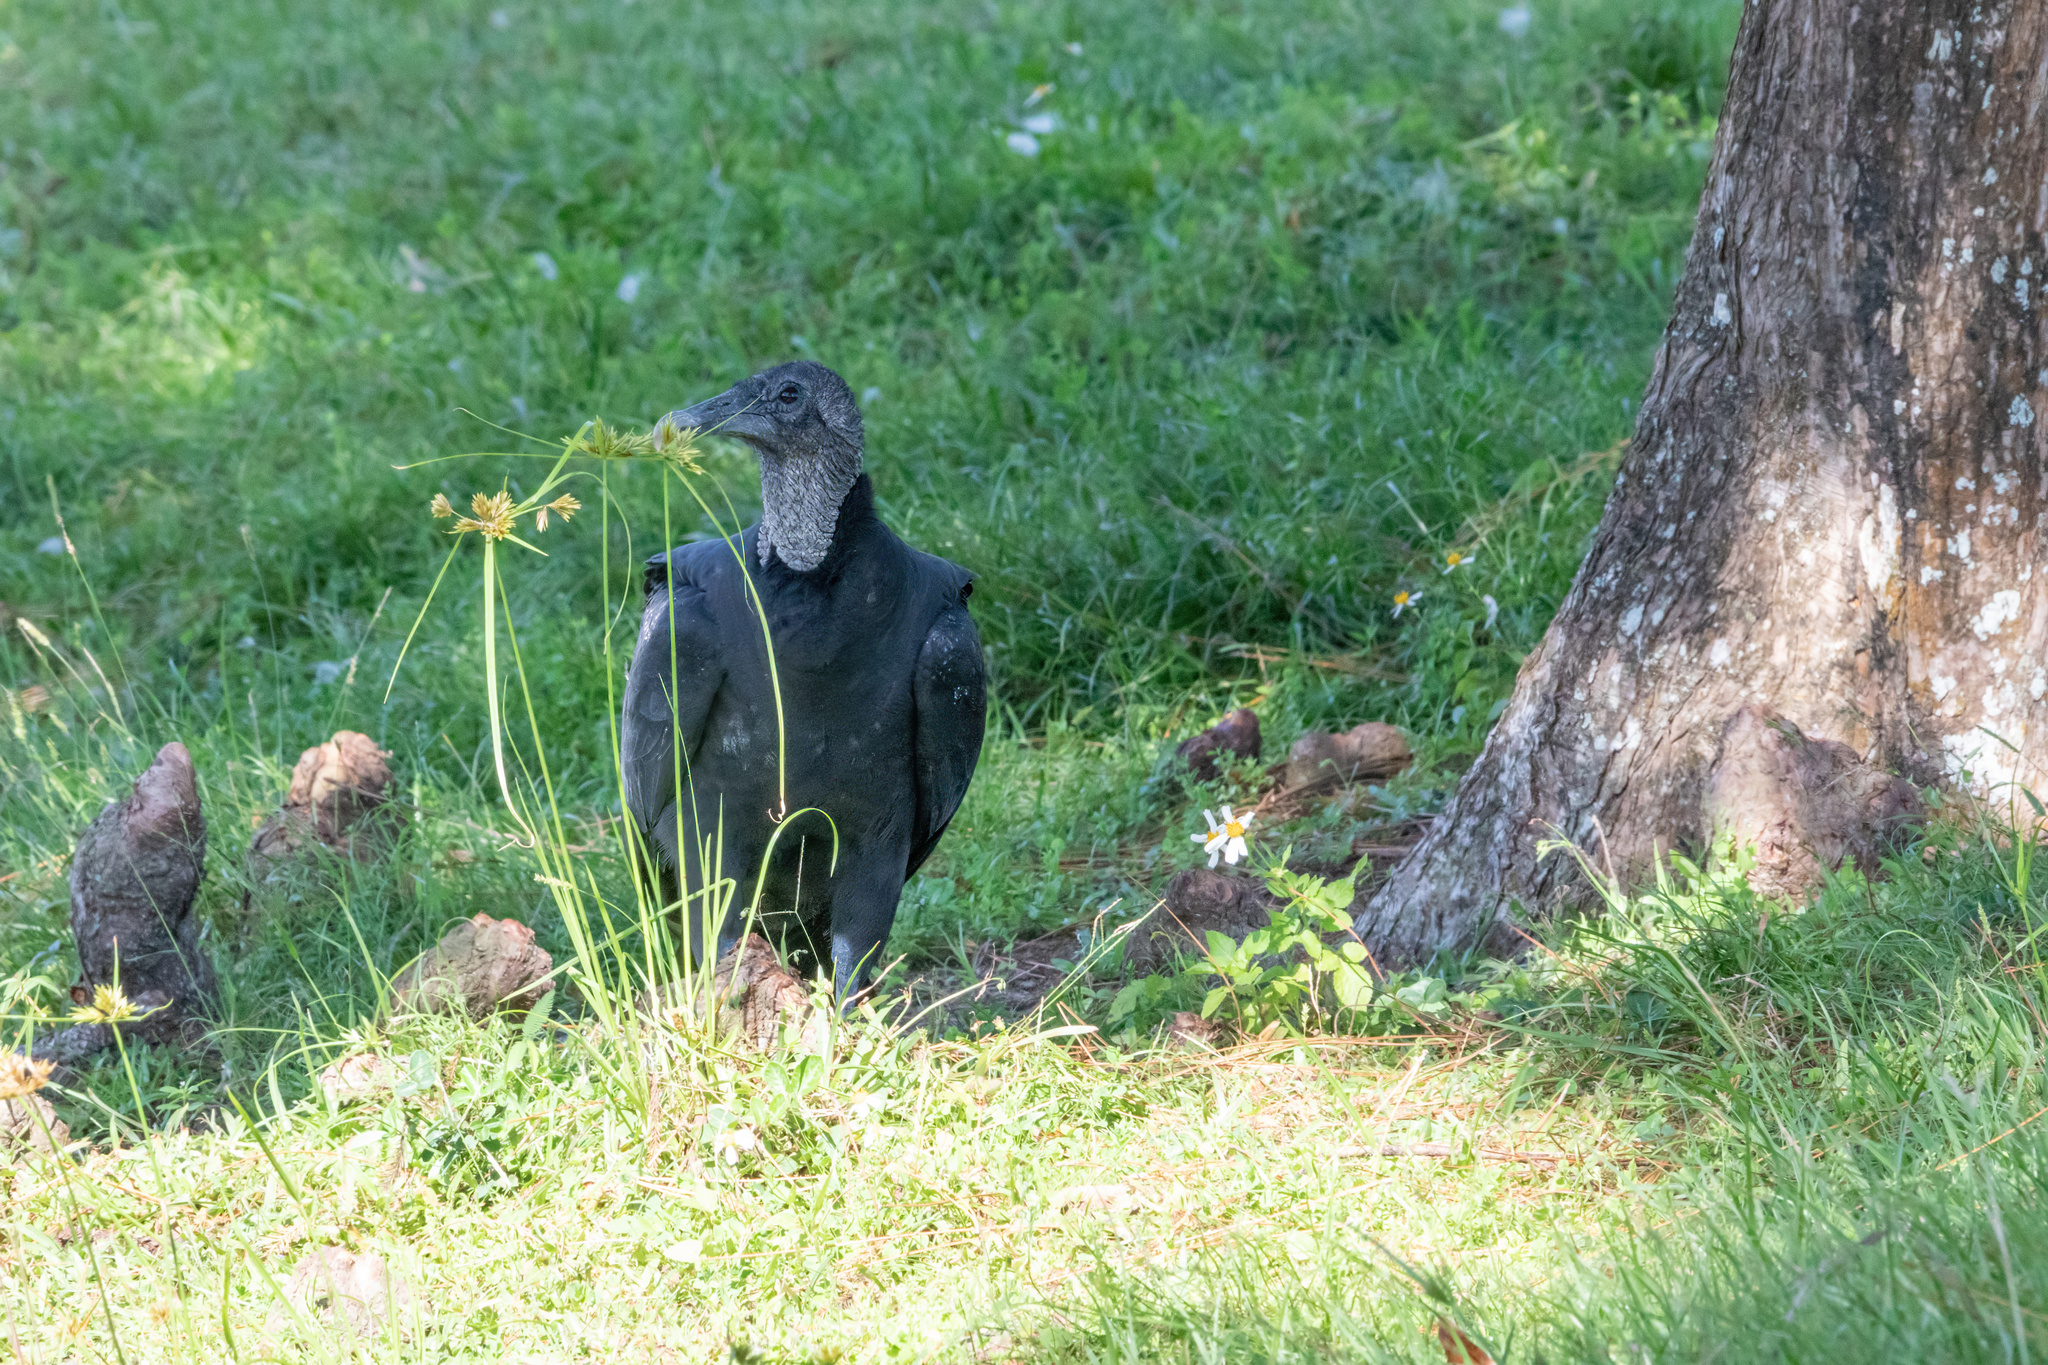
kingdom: Animalia
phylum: Chordata
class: Aves
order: Accipitriformes
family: Cathartidae
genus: Coragyps
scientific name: Coragyps atratus
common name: Black vulture
